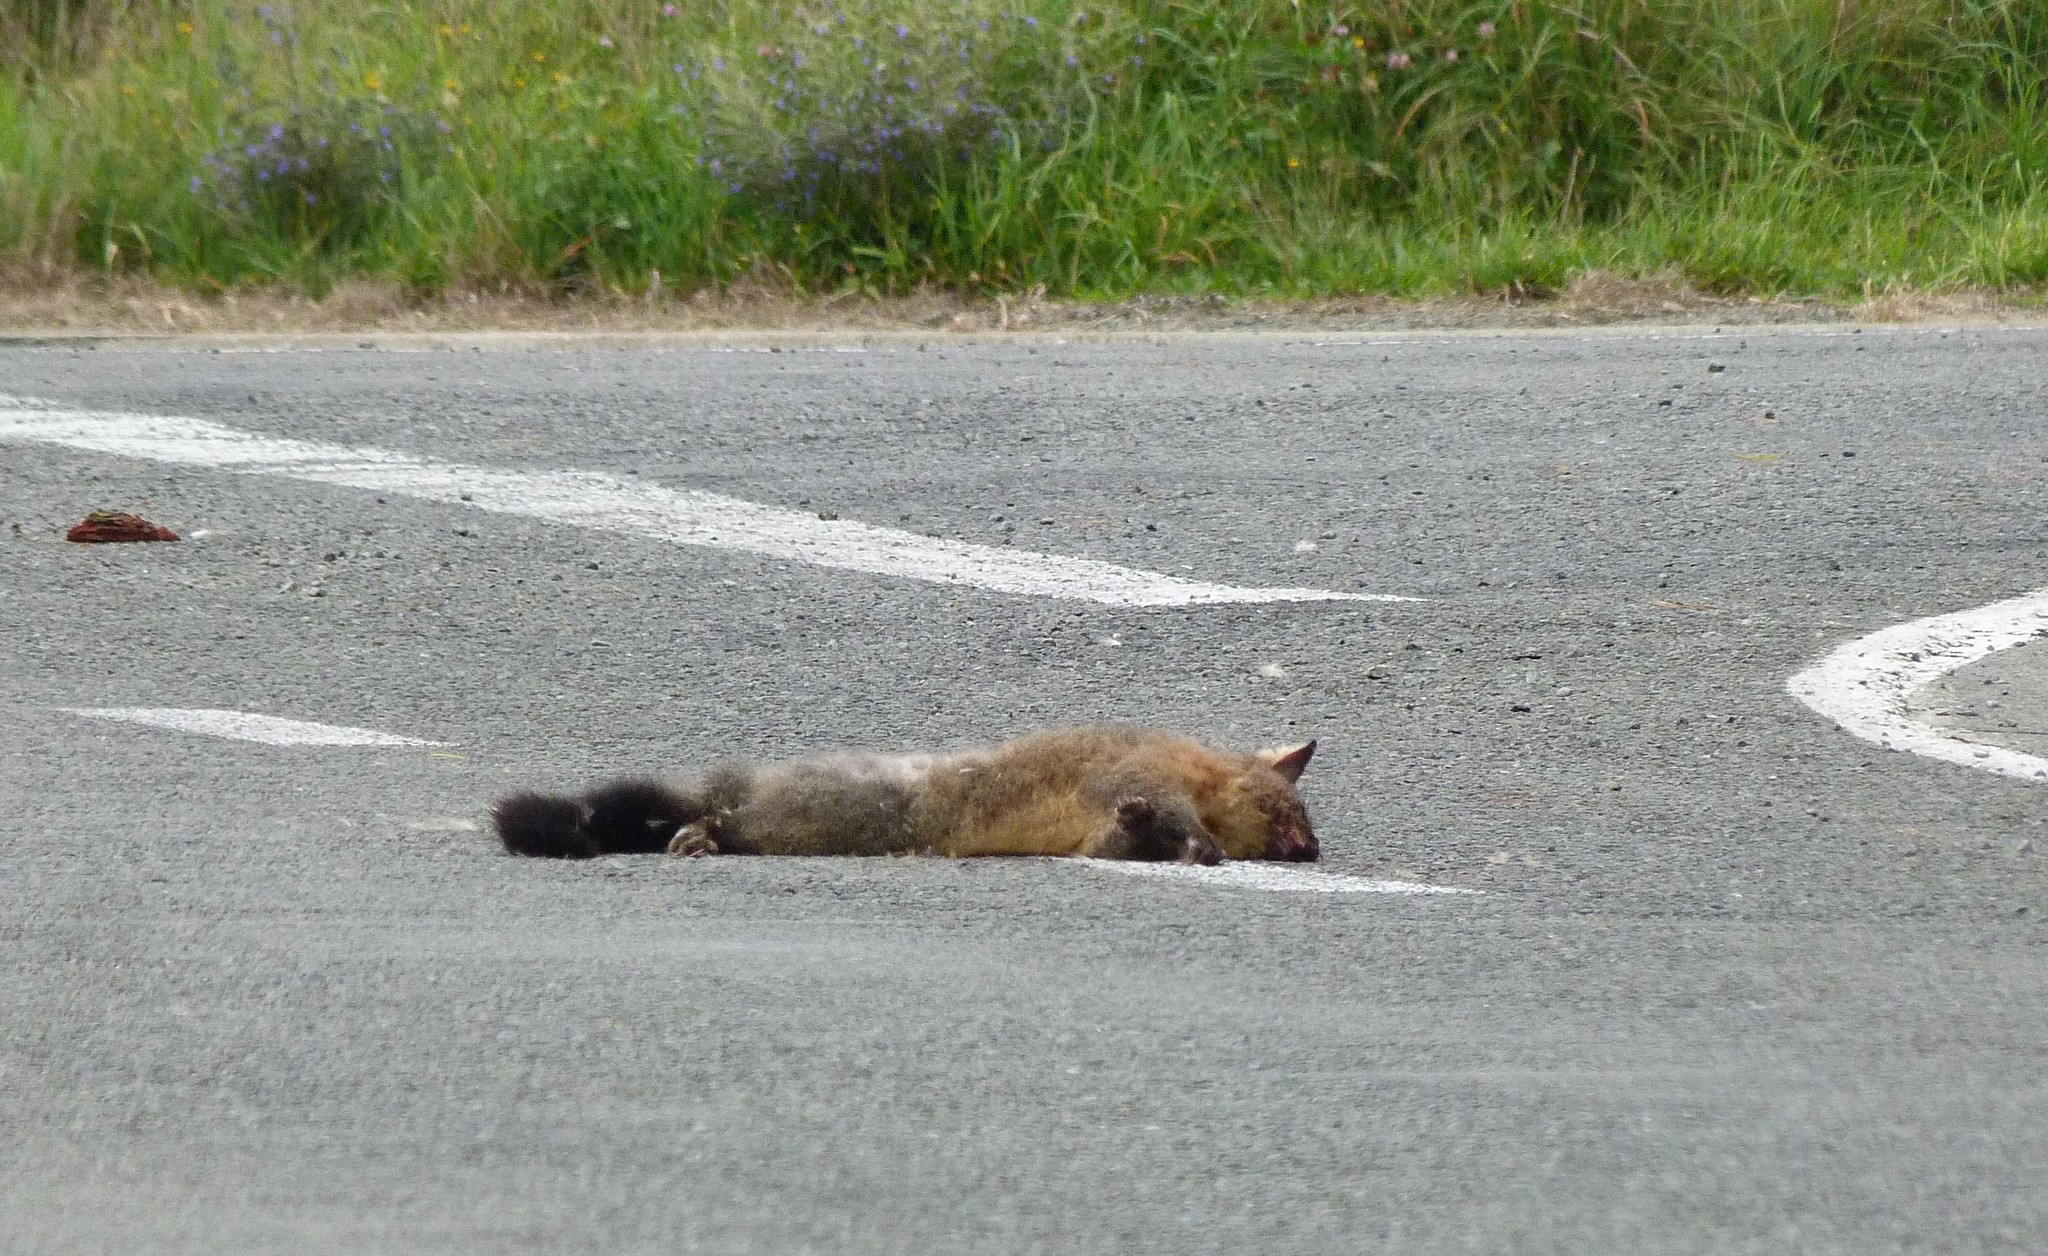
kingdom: Animalia
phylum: Chordata
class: Mammalia
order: Diprotodontia
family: Phalangeridae
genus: Trichosurus
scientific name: Trichosurus vulpecula
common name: Common brushtail
